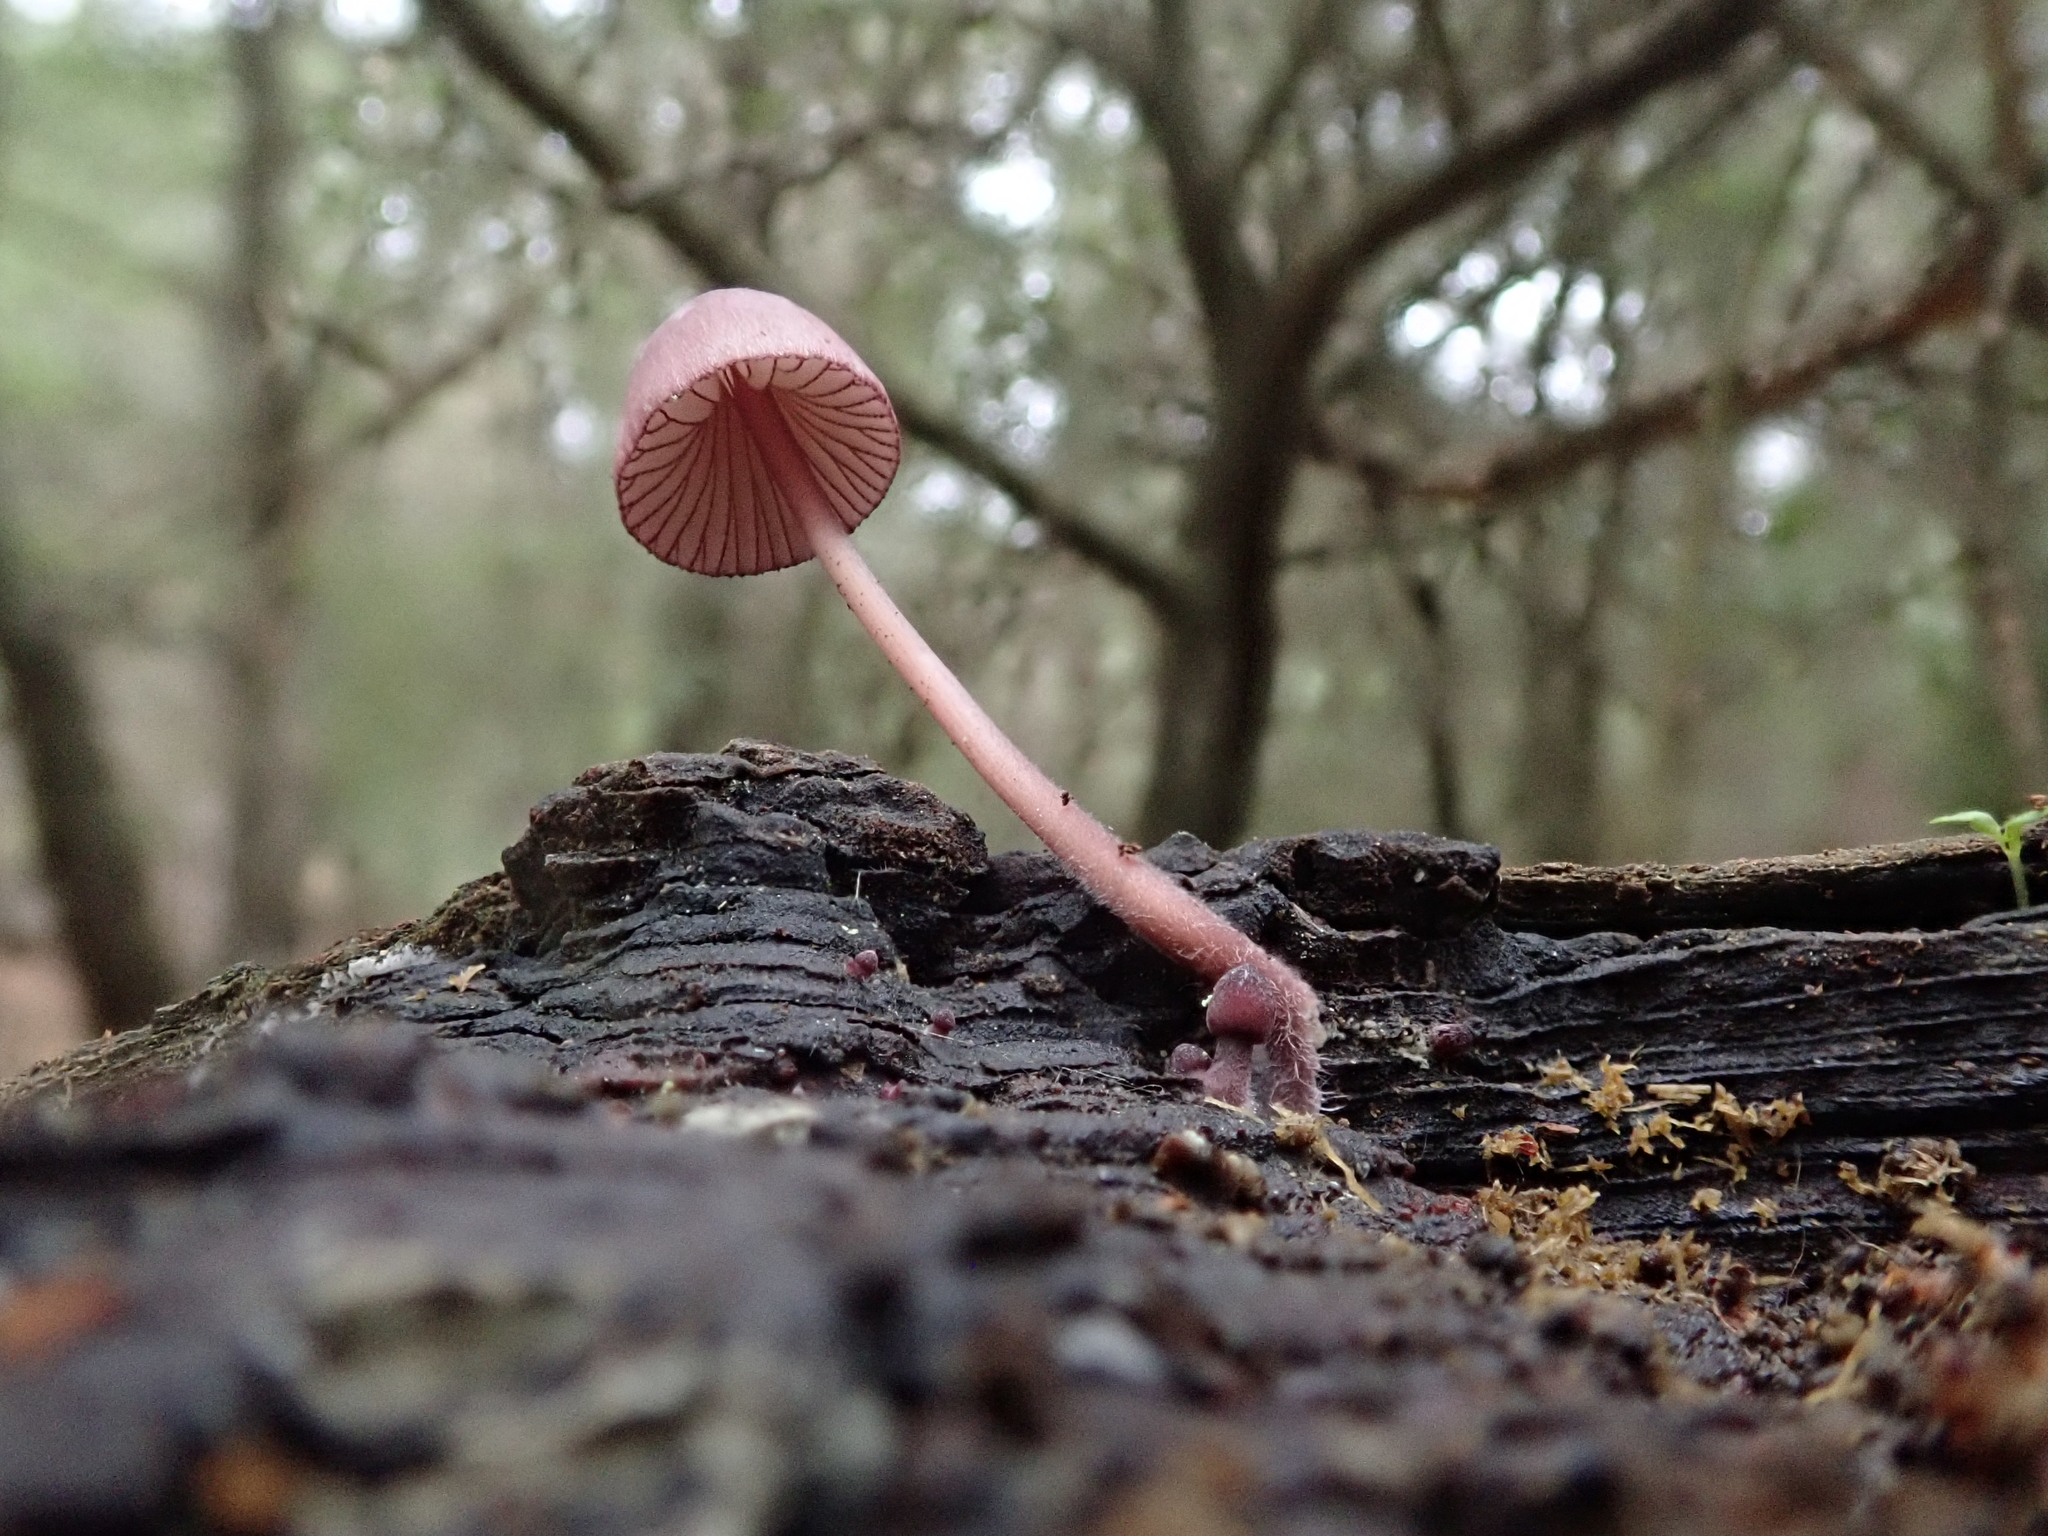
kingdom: Fungi
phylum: Basidiomycota
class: Agaricomycetes
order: Agaricales
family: Mycenaceae
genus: Mycena
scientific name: Mycena purpureofusca
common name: Purple edge bonnet
